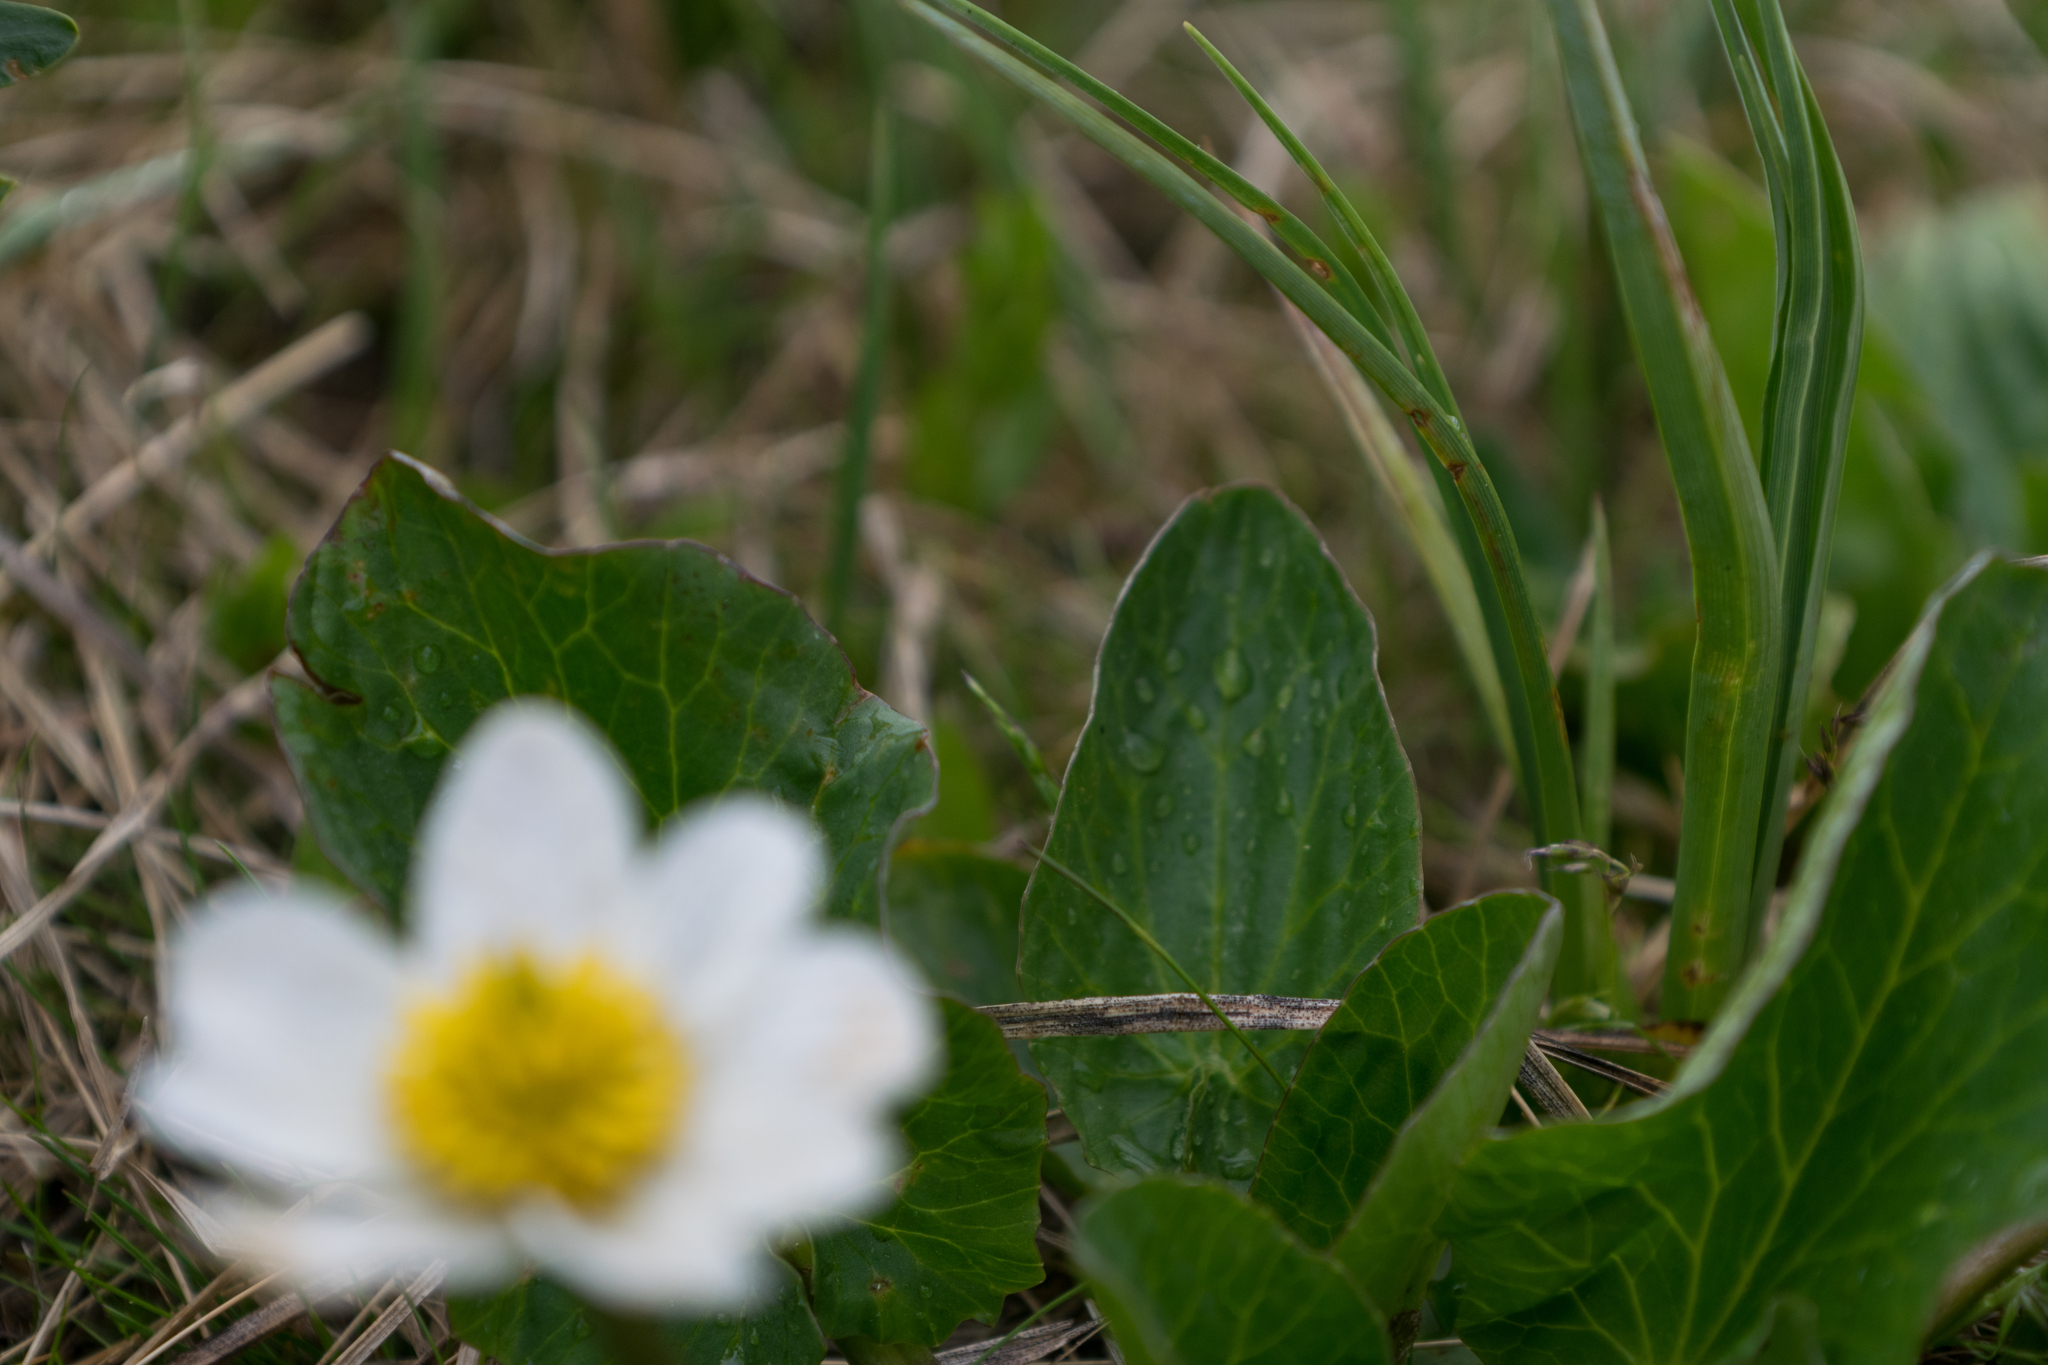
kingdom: Plantae
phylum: Tracheophyta
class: Magnoliopsida
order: Ranunculales
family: Ranunculaceae
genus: Caltha
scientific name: Caltha leptosepala
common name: Elkslip
